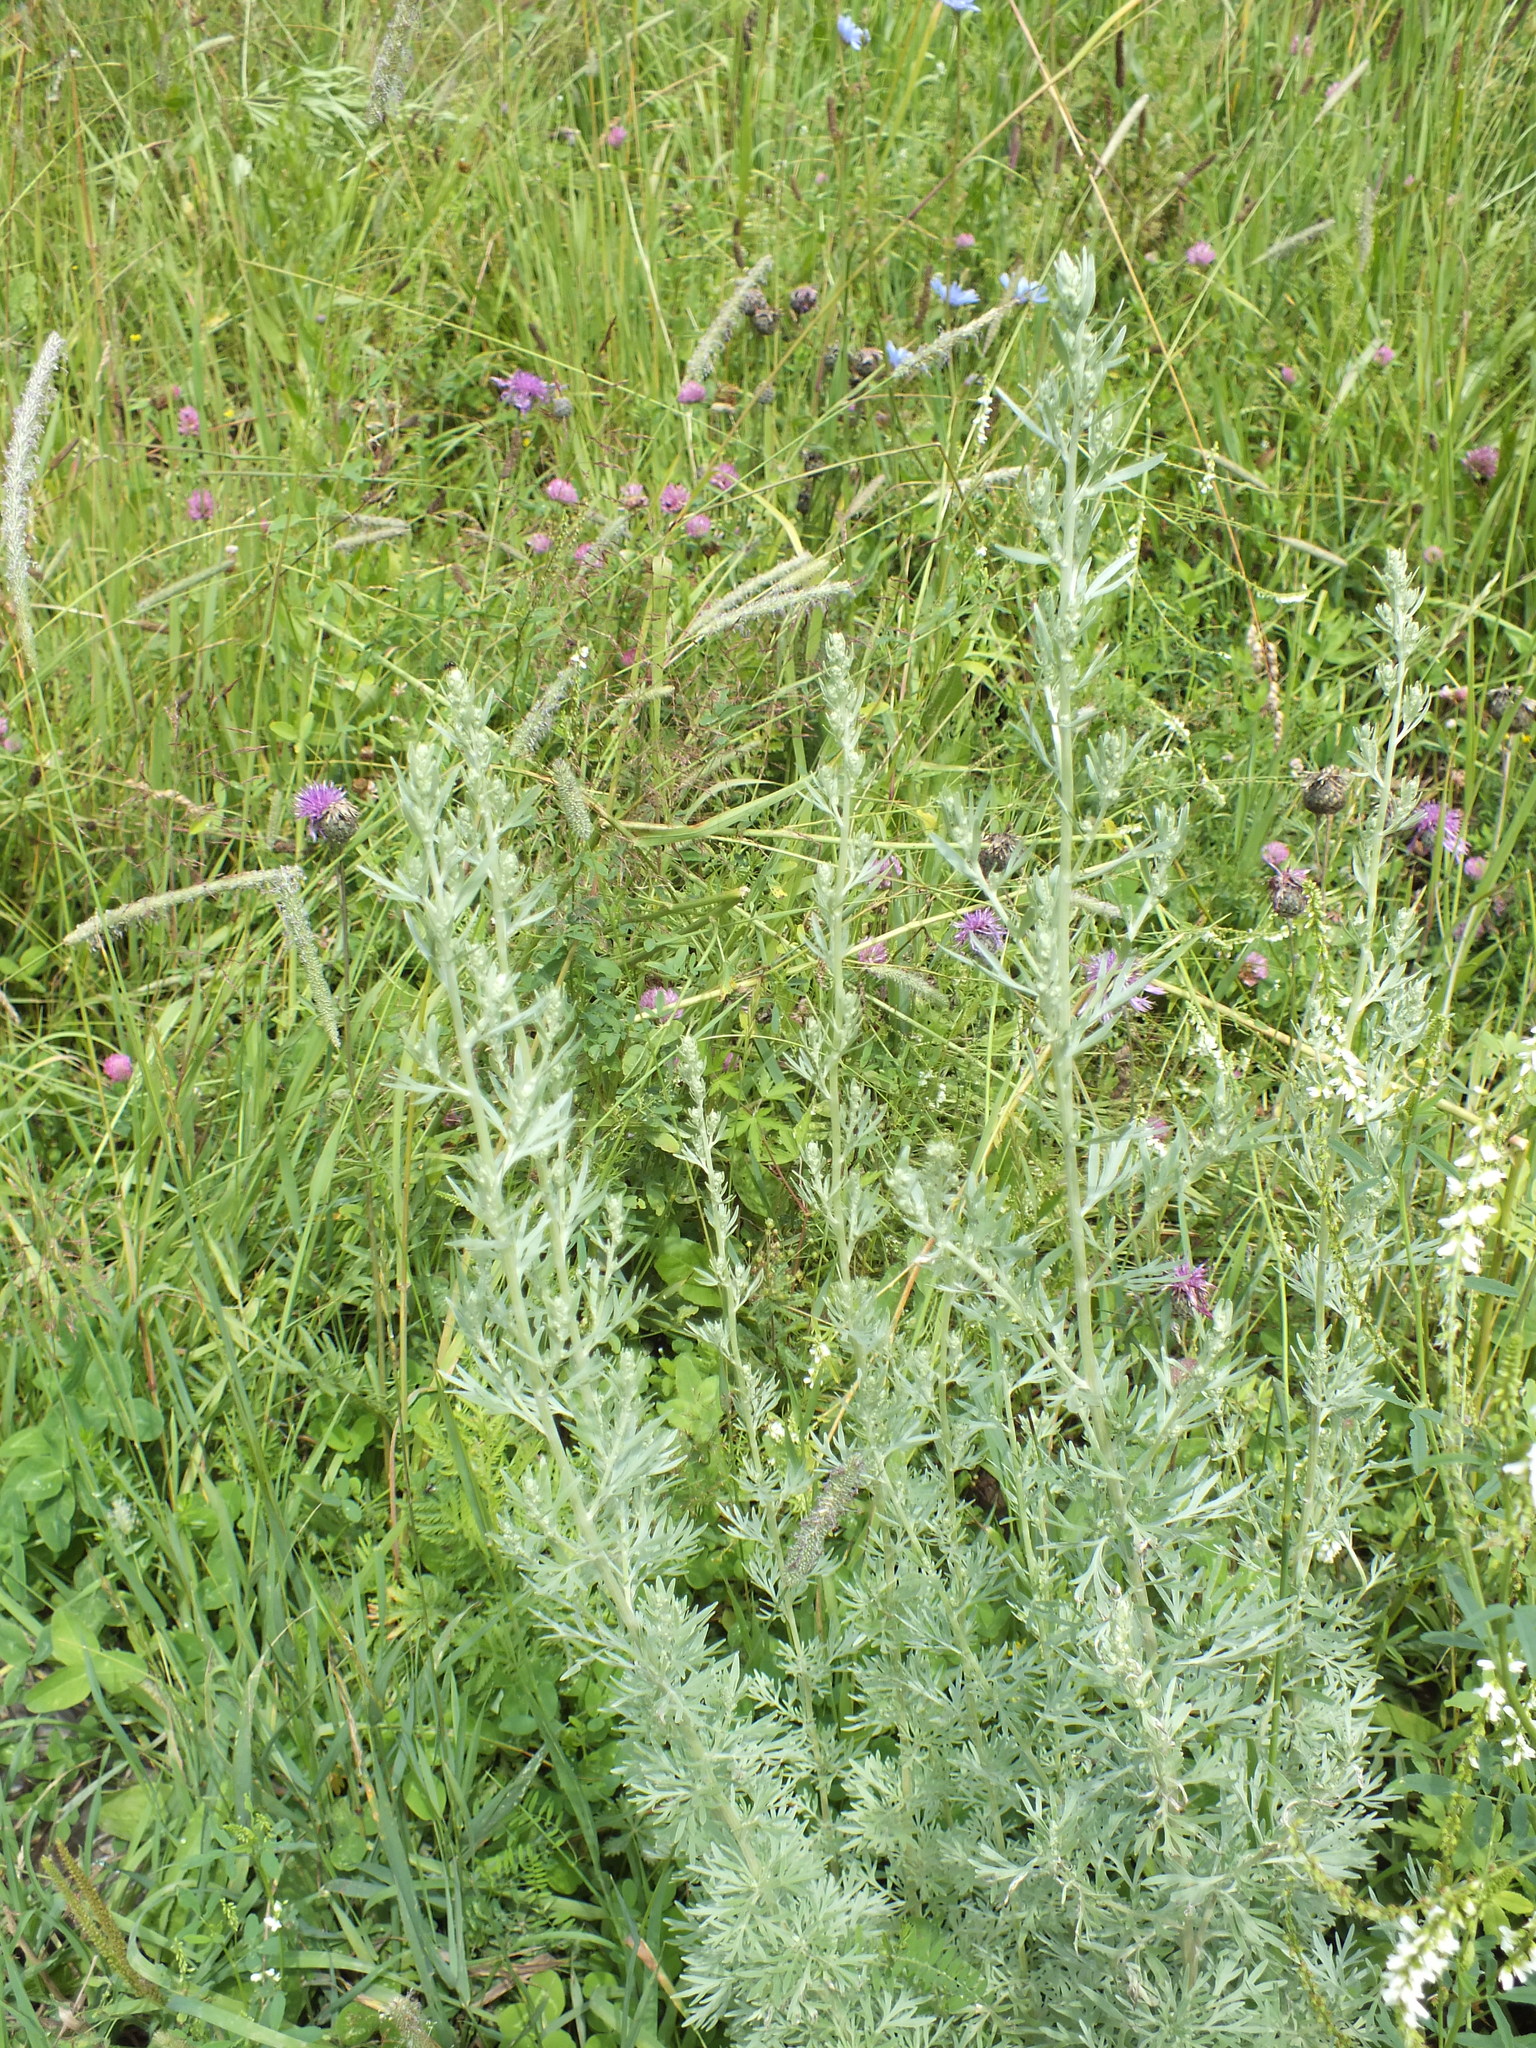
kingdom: Plantae
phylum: Tracheophyta
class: Magnoliopsida
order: Asterales
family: Asteraceae
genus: Artemisia
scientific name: Artemisia absinthium
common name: Wormwood
